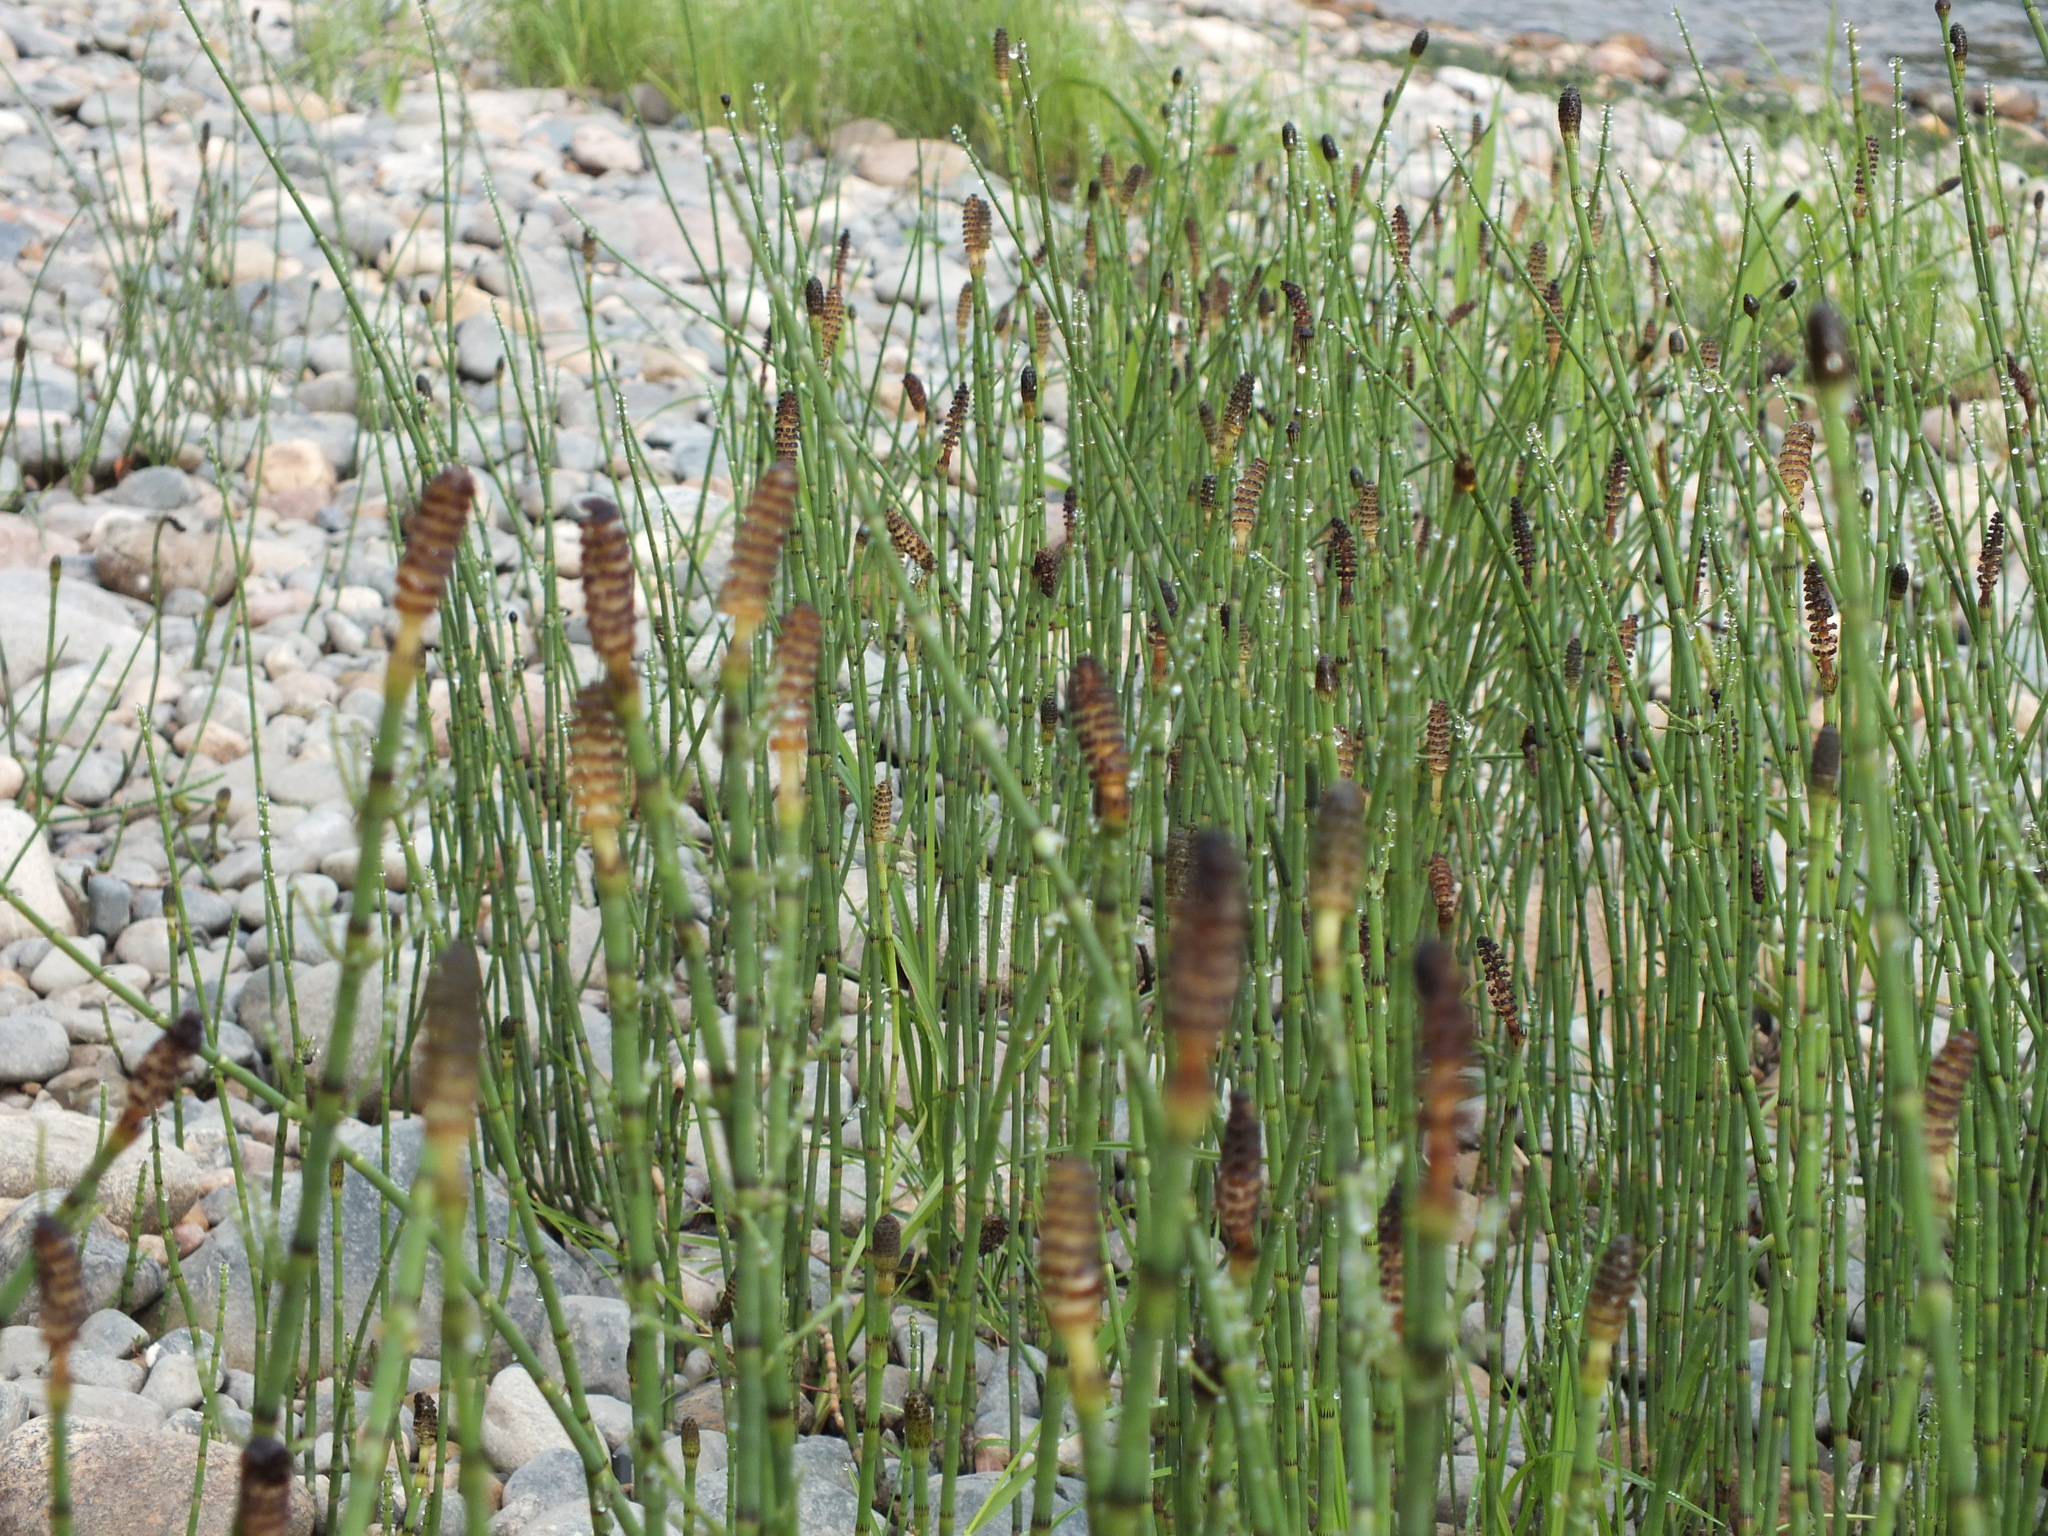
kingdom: Plantae
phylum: Tracheophyta
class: Polypodiopsida
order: Equisetales
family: Equisetaceae
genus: Equisetum
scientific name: Equisetum fluviatile
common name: Water horsetail
